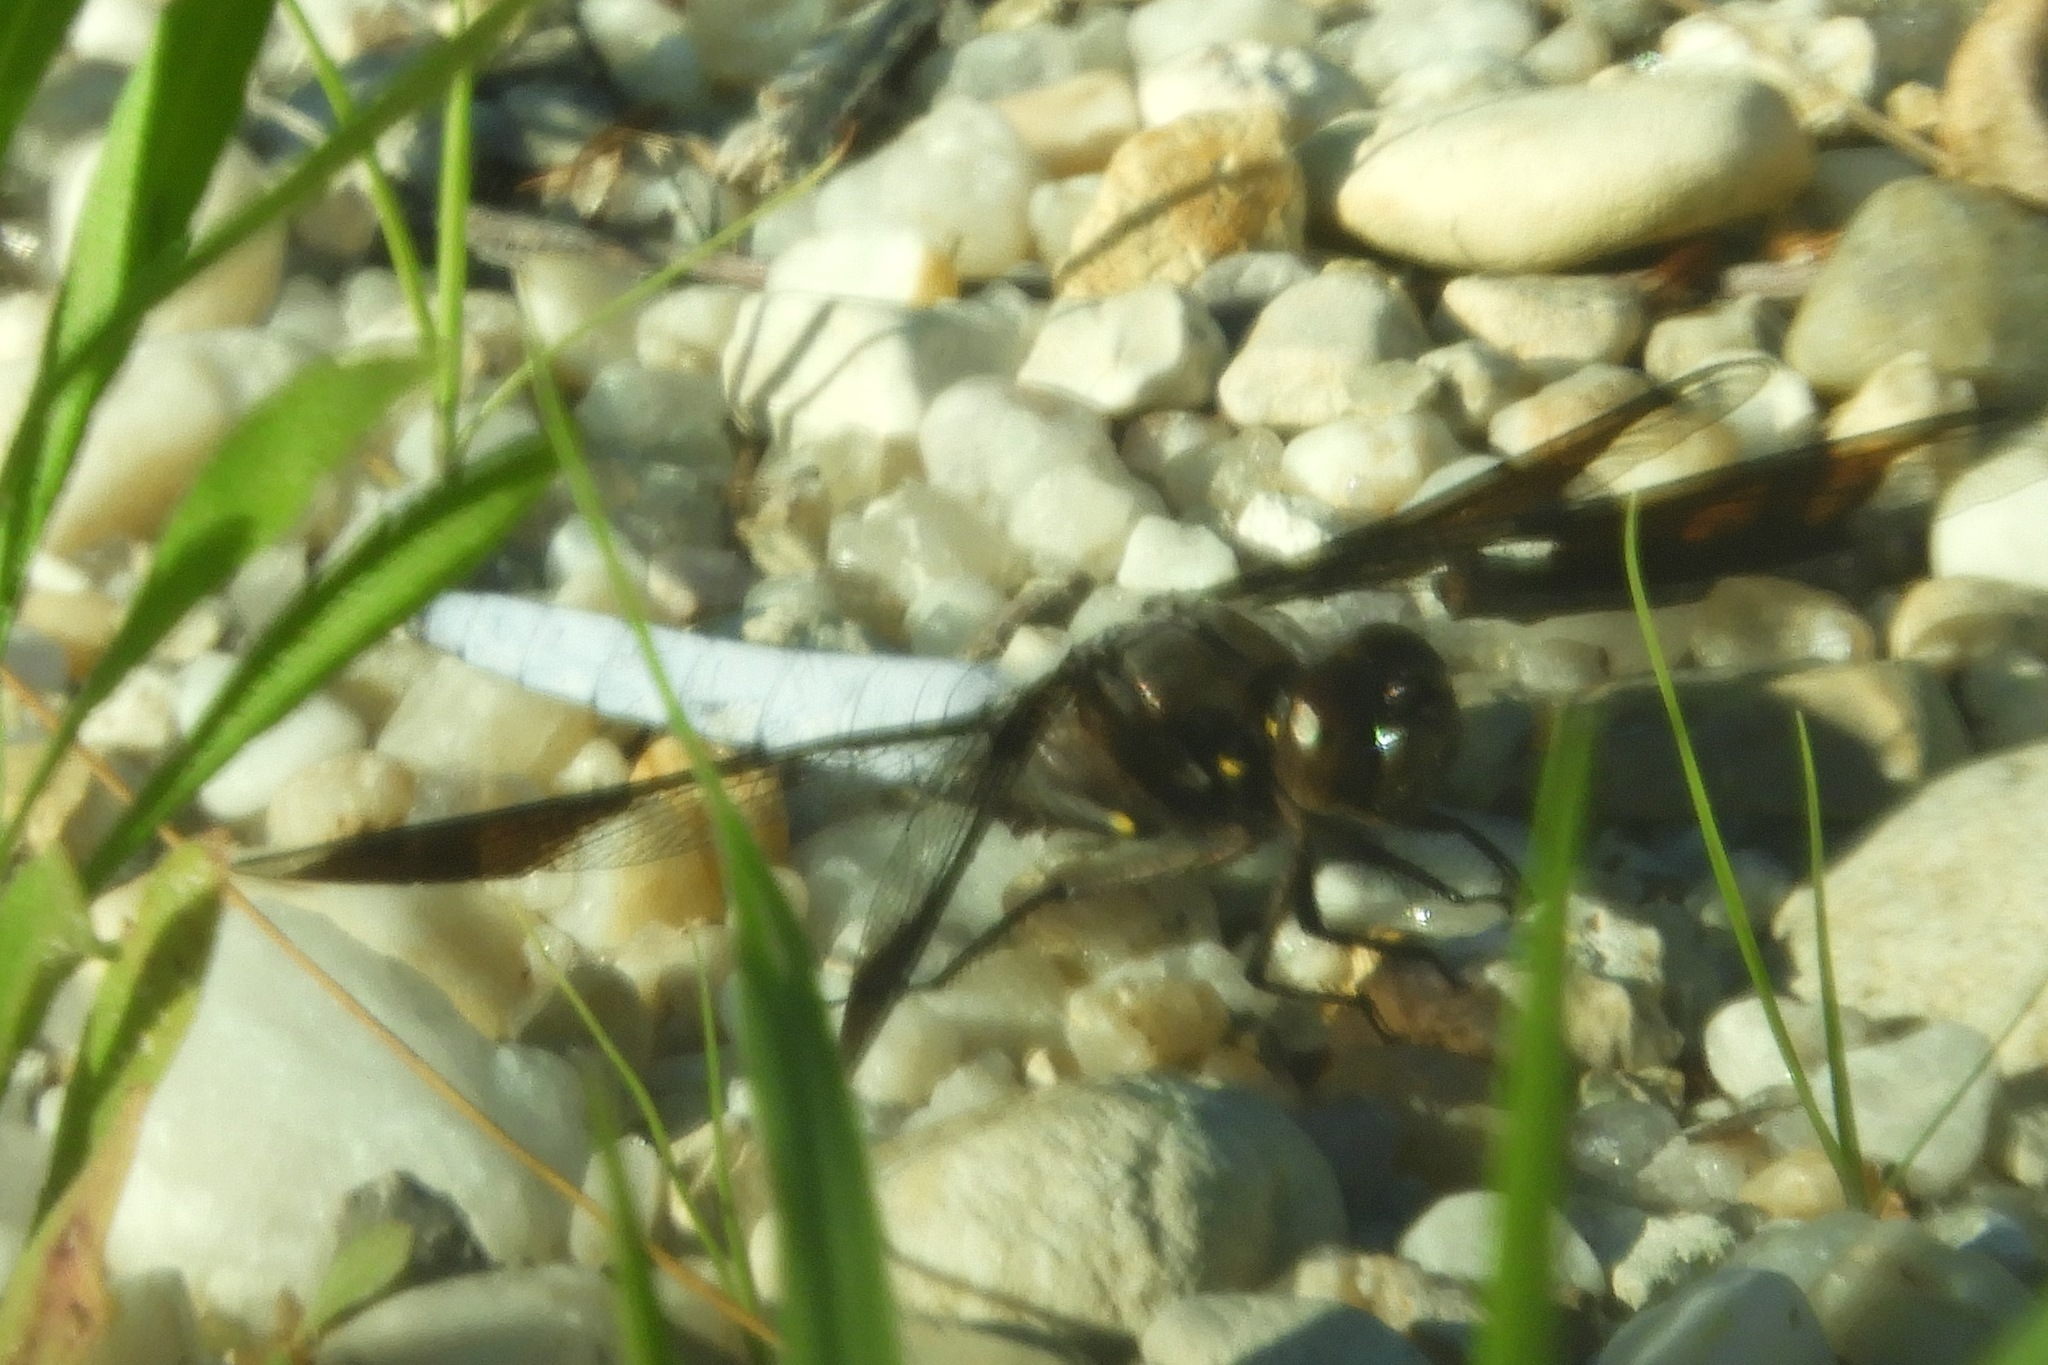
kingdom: Animalia
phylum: Arthropoda
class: Insecta
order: Odonata
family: Libellulidae
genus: Plathemis
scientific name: Plathemis lydia
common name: Common whitetail
